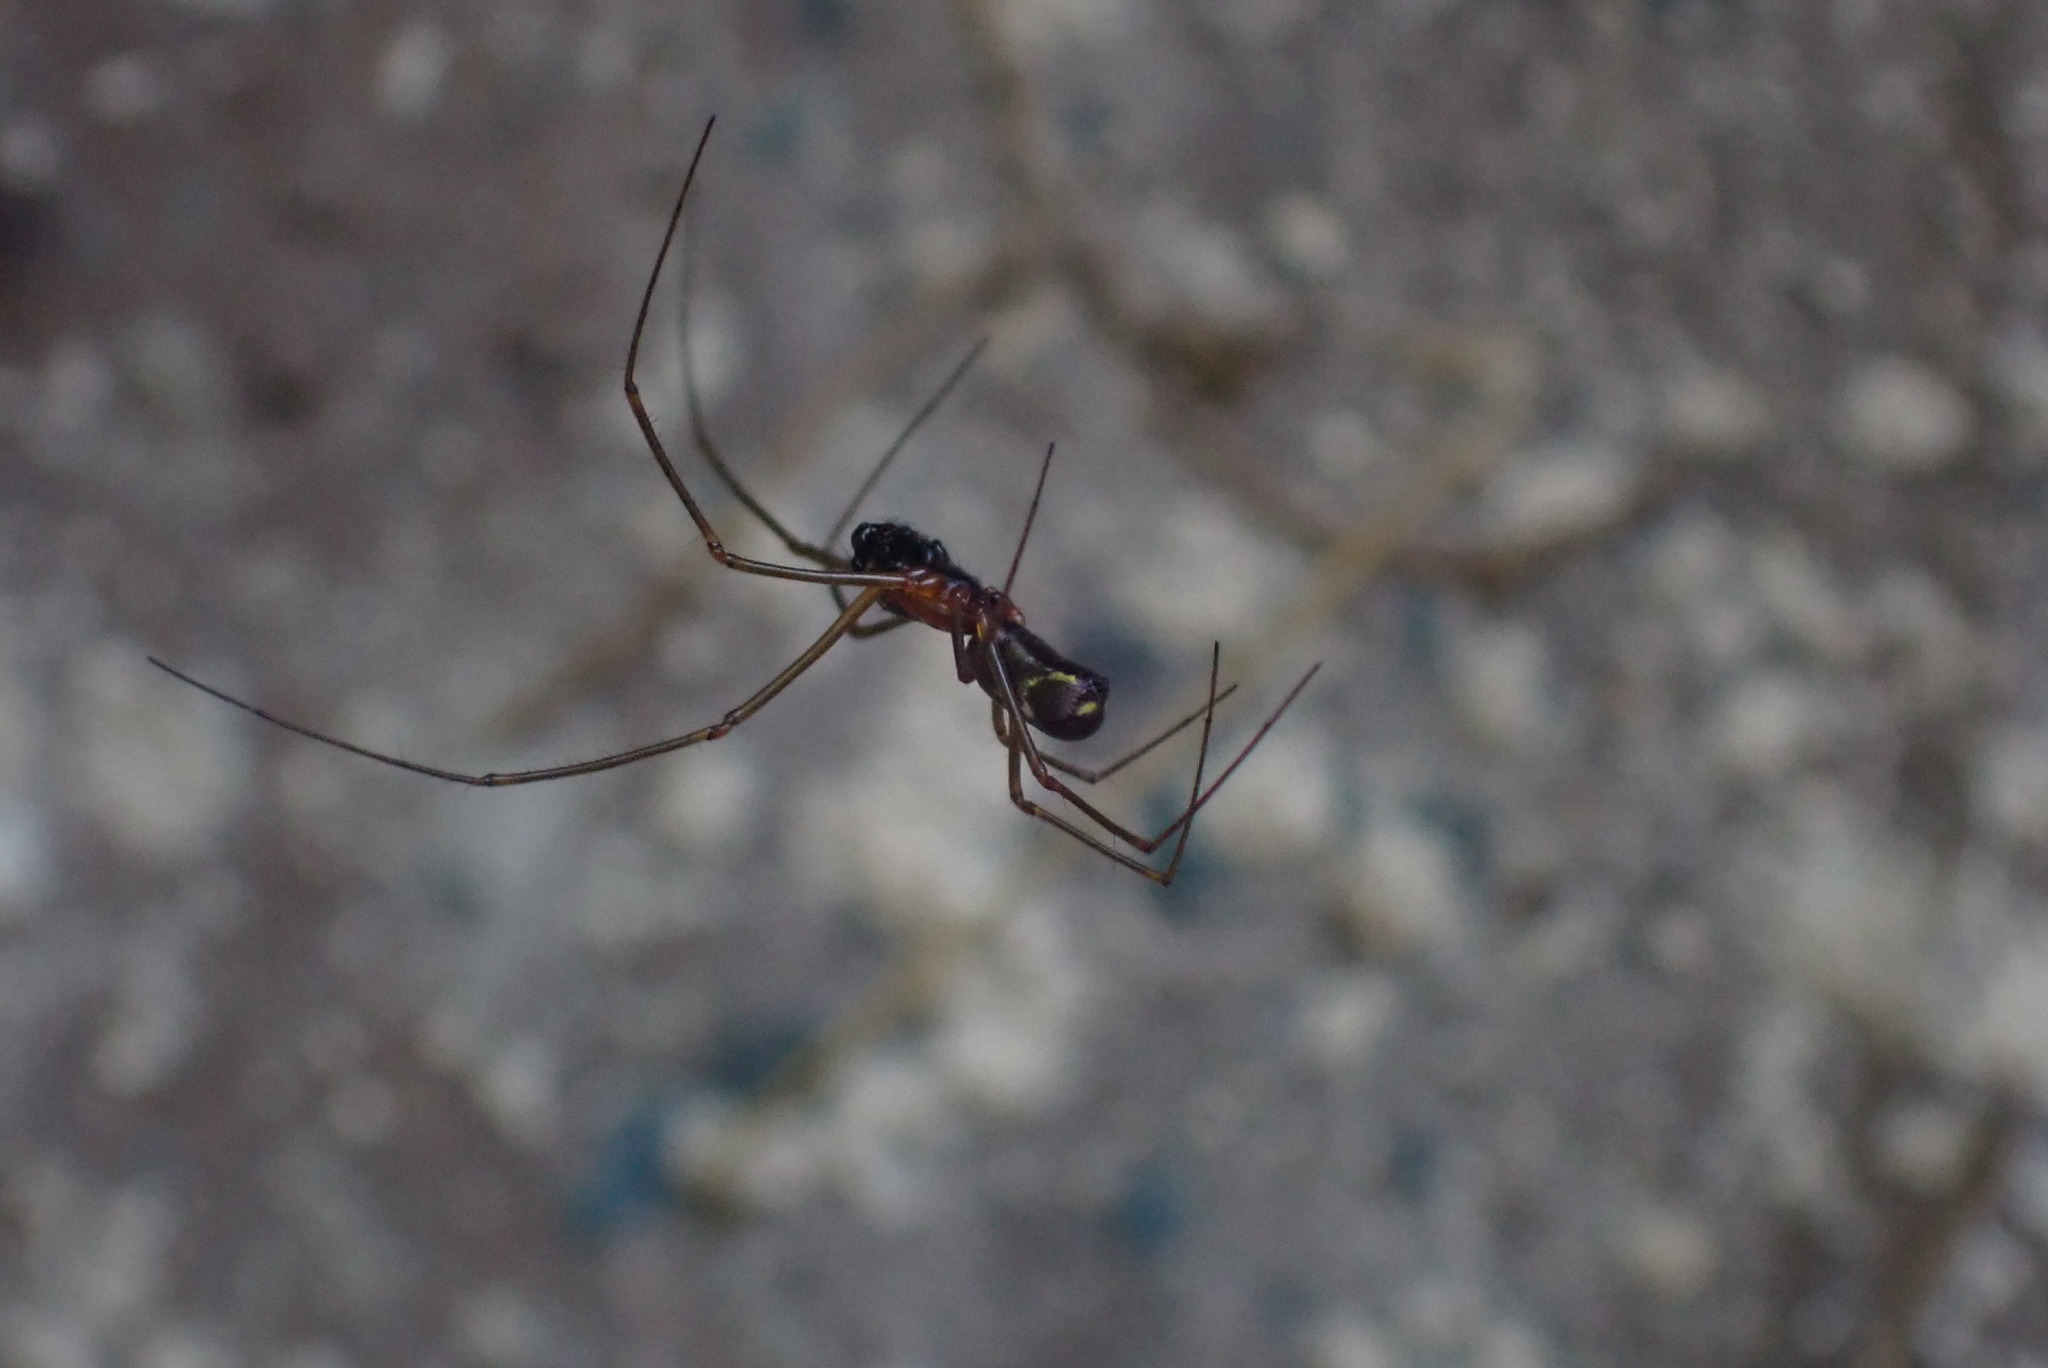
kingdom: Animalia
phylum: Arthropoda
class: Arachnida
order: Araneae
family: Linyphiidae
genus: Neriene
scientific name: Neriene radiata
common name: Filmy dome spider
